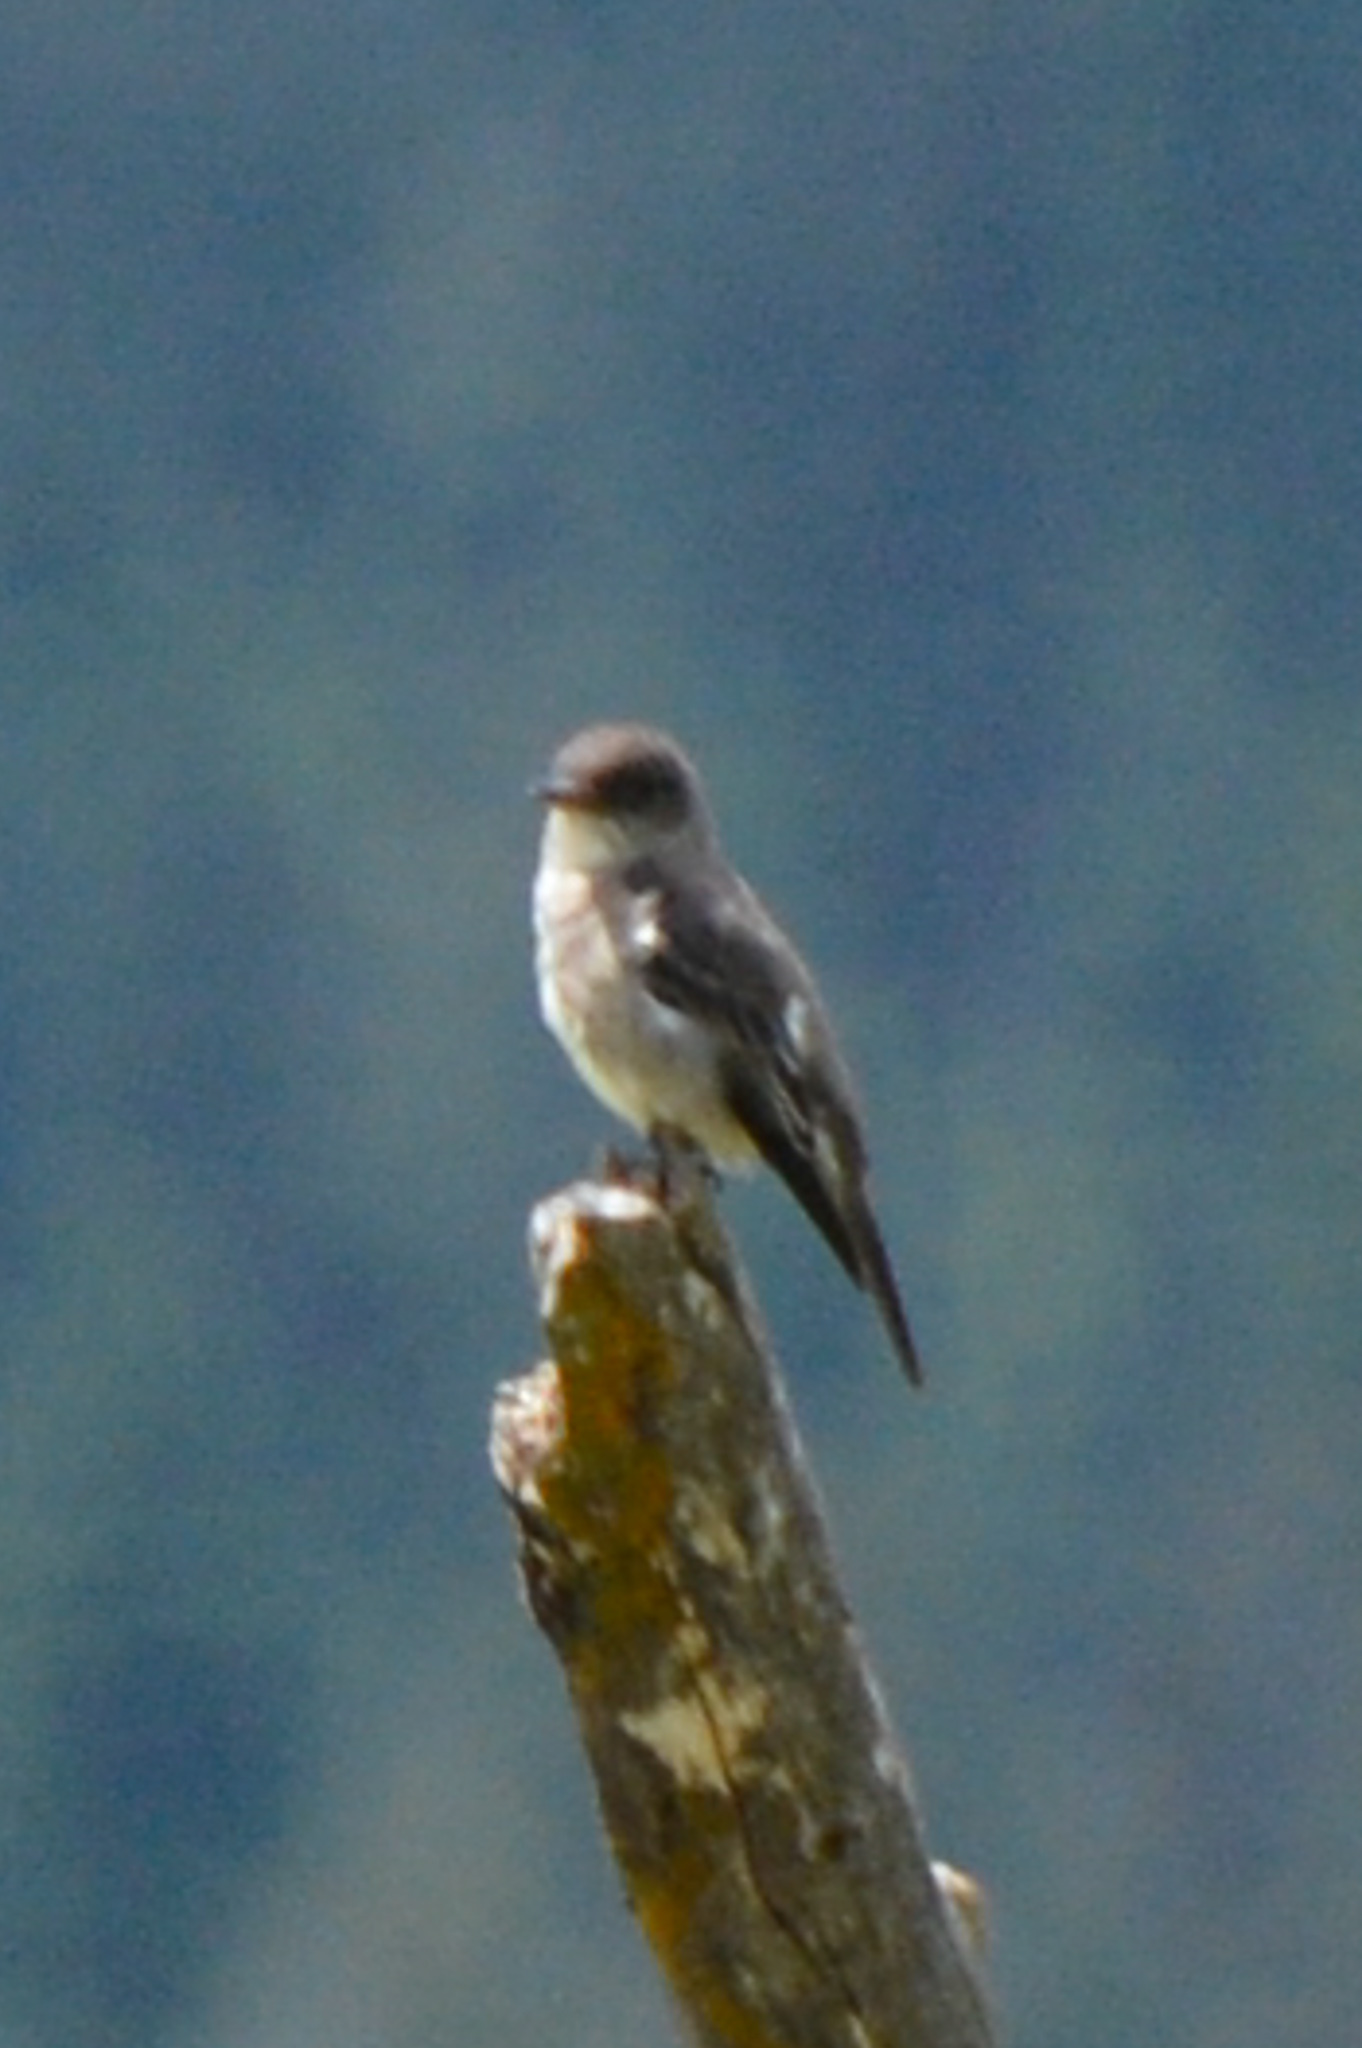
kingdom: Animalia
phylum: Chordata
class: Aves
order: Passeriformes
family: Tyrannidae
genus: Contopus
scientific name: Contopus sordidulus
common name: Western wood-pewee
